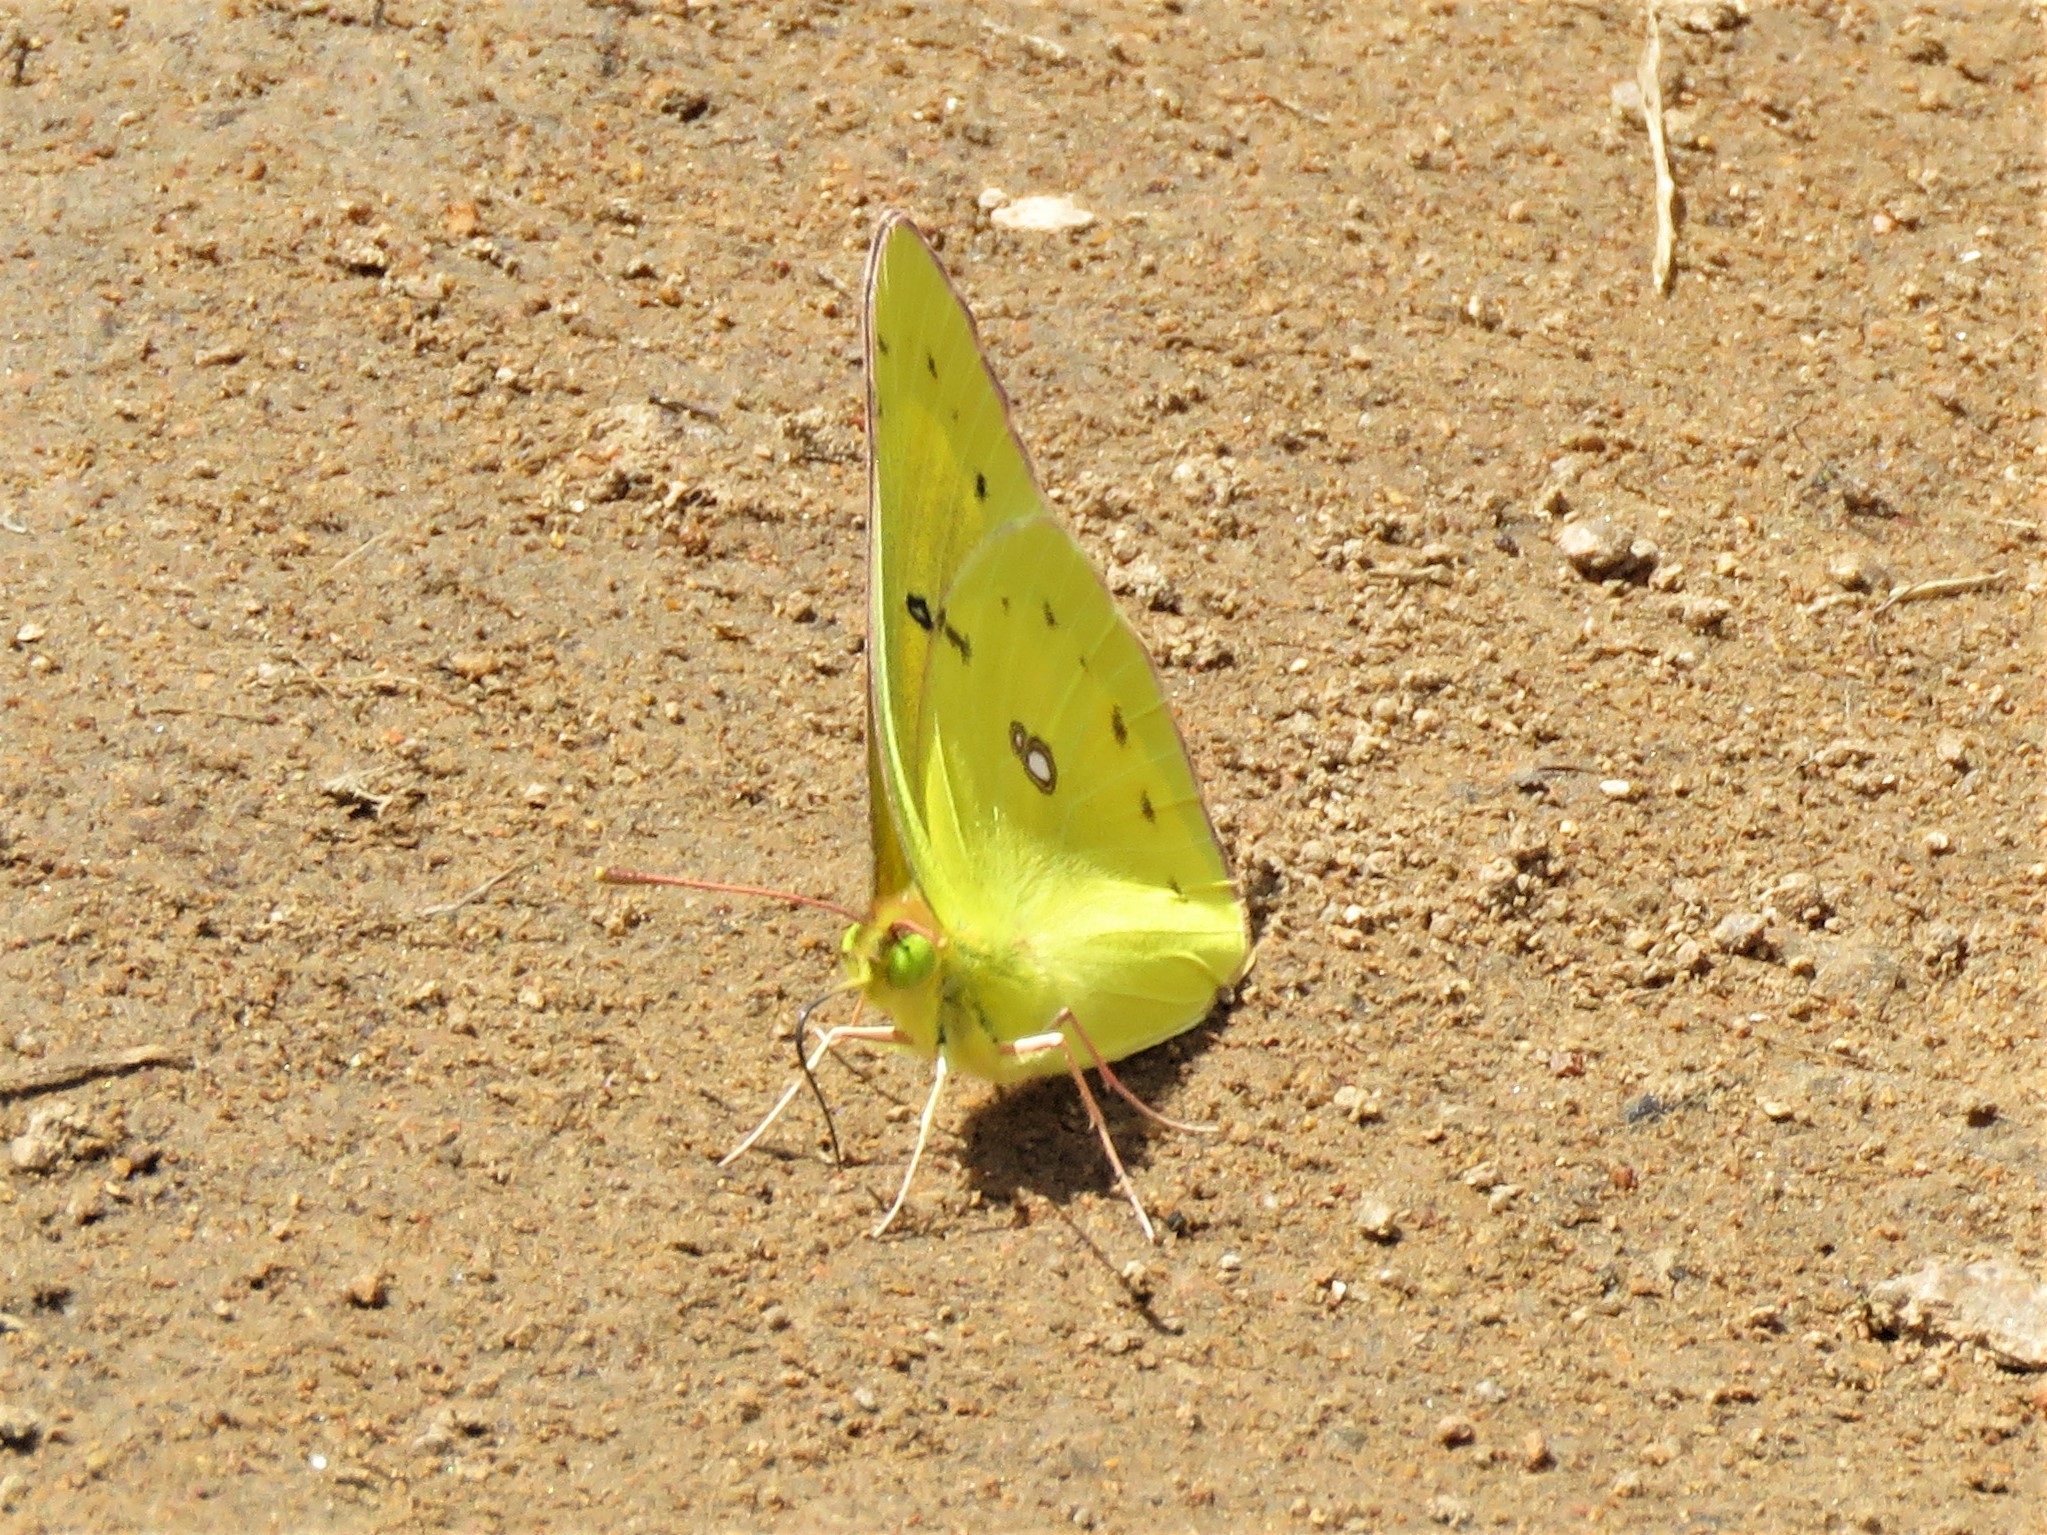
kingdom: Animalia
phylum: Arthropoda
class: Insecta
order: Lepidoptera
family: Pieridae
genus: Colias
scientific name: Colias eurytheme
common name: Alfalfa butterfly
